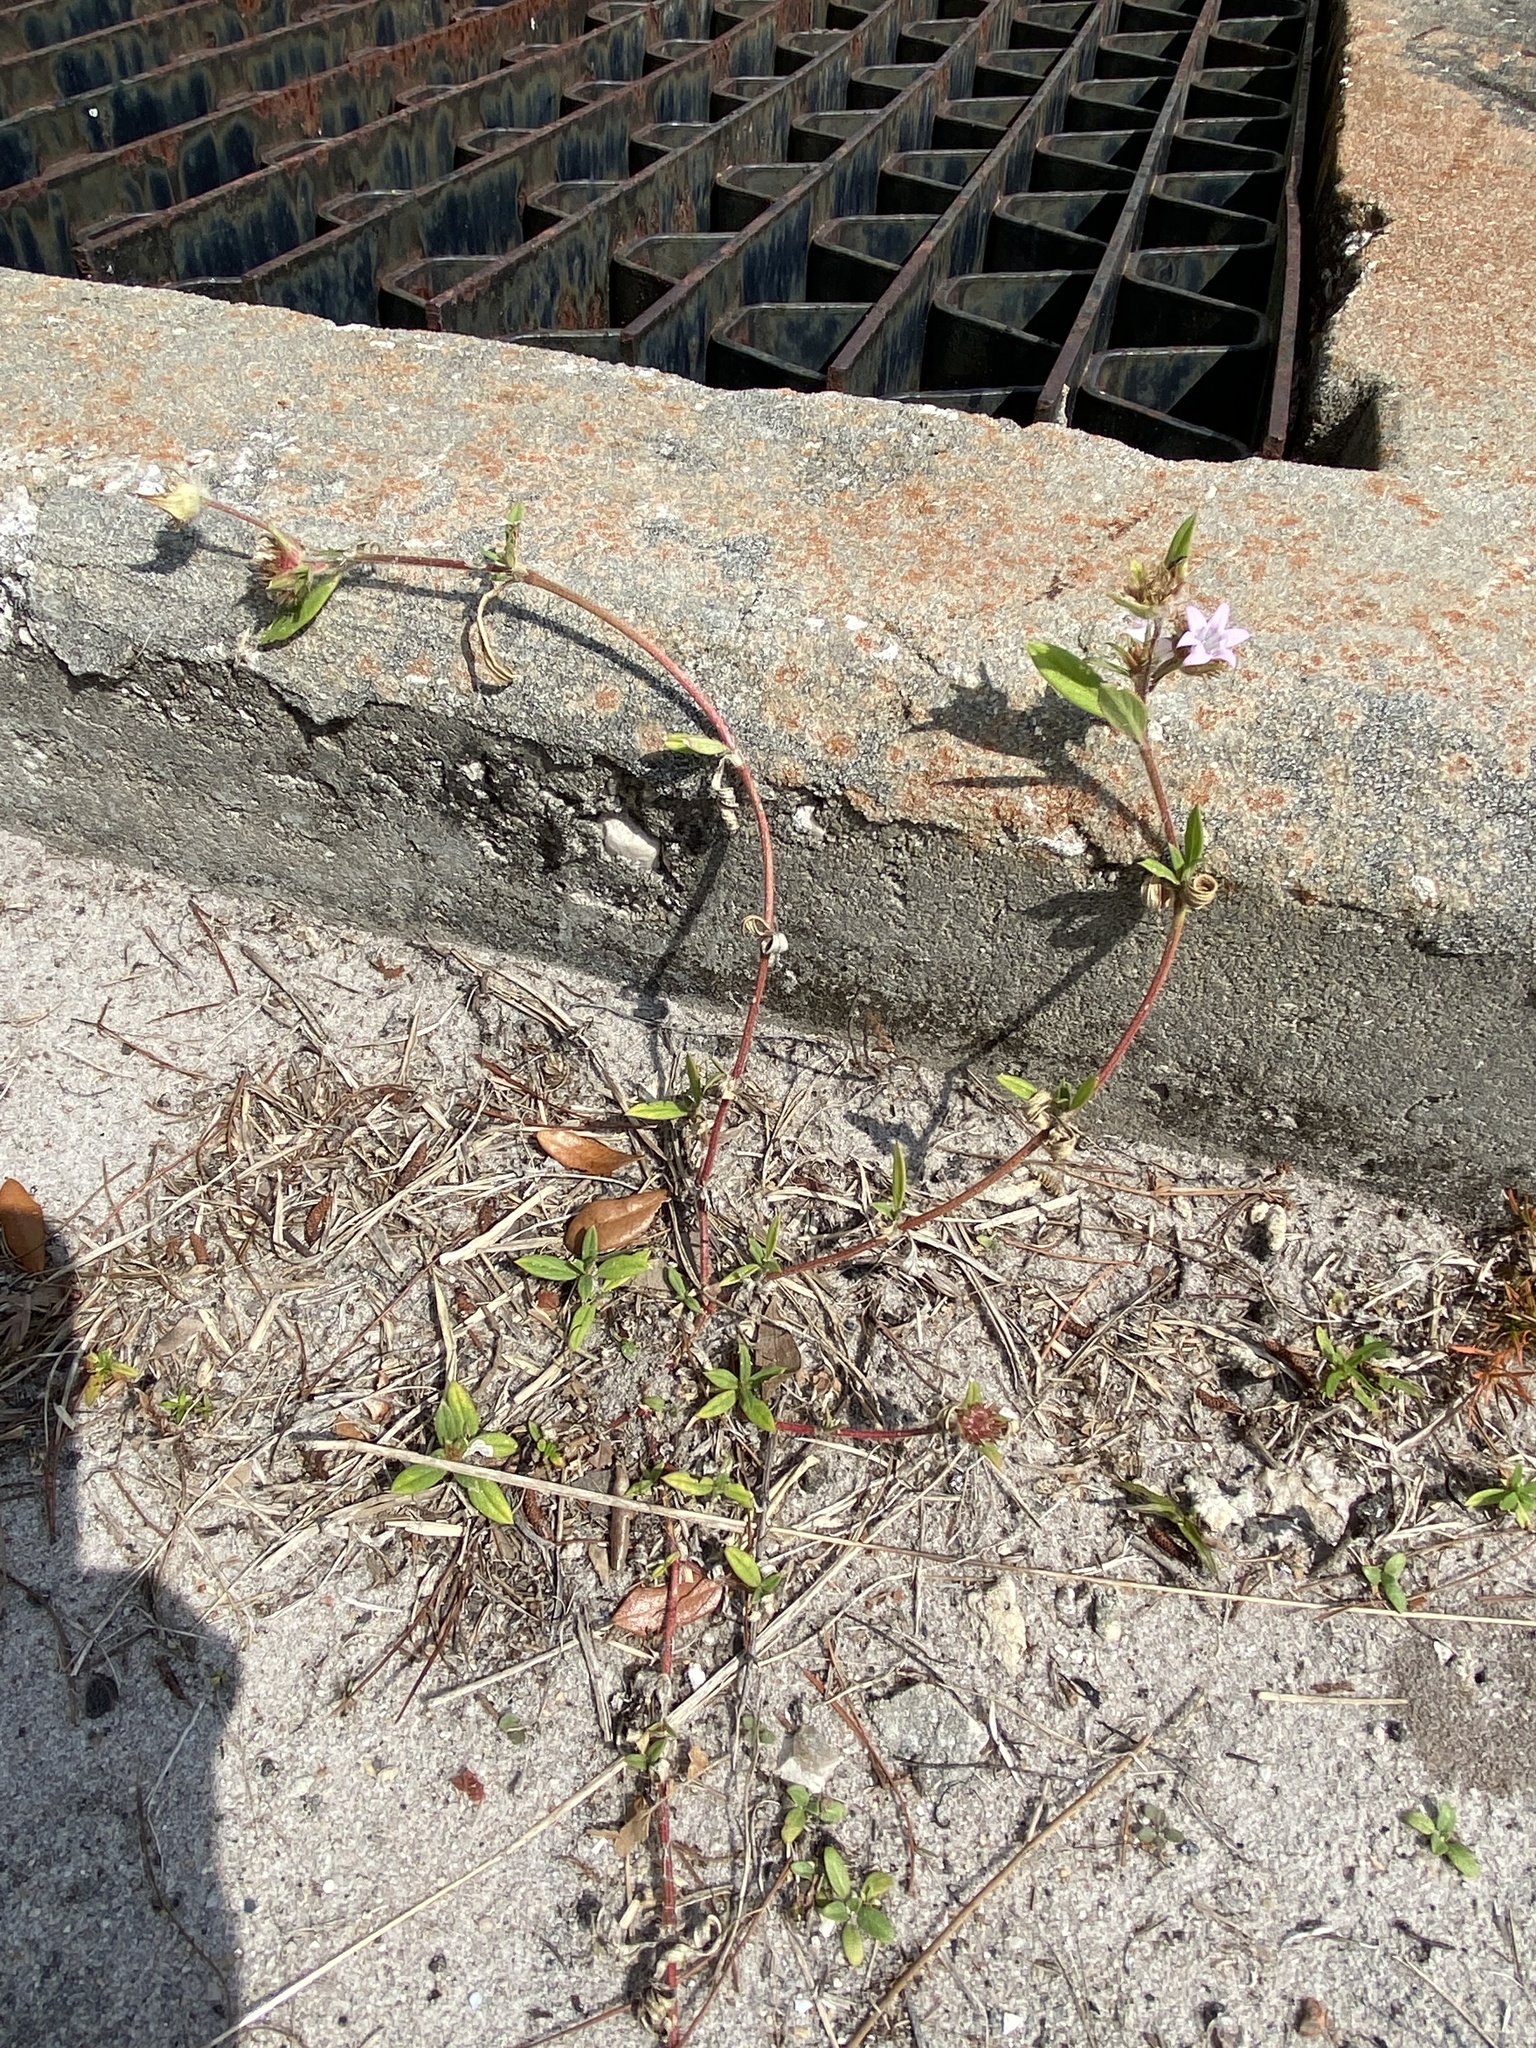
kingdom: Plantae
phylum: Tracheophyta
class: Magnoliopsida
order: Gentianales
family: Rubiaceae
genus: Richardia
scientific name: Richardia grandiflora
